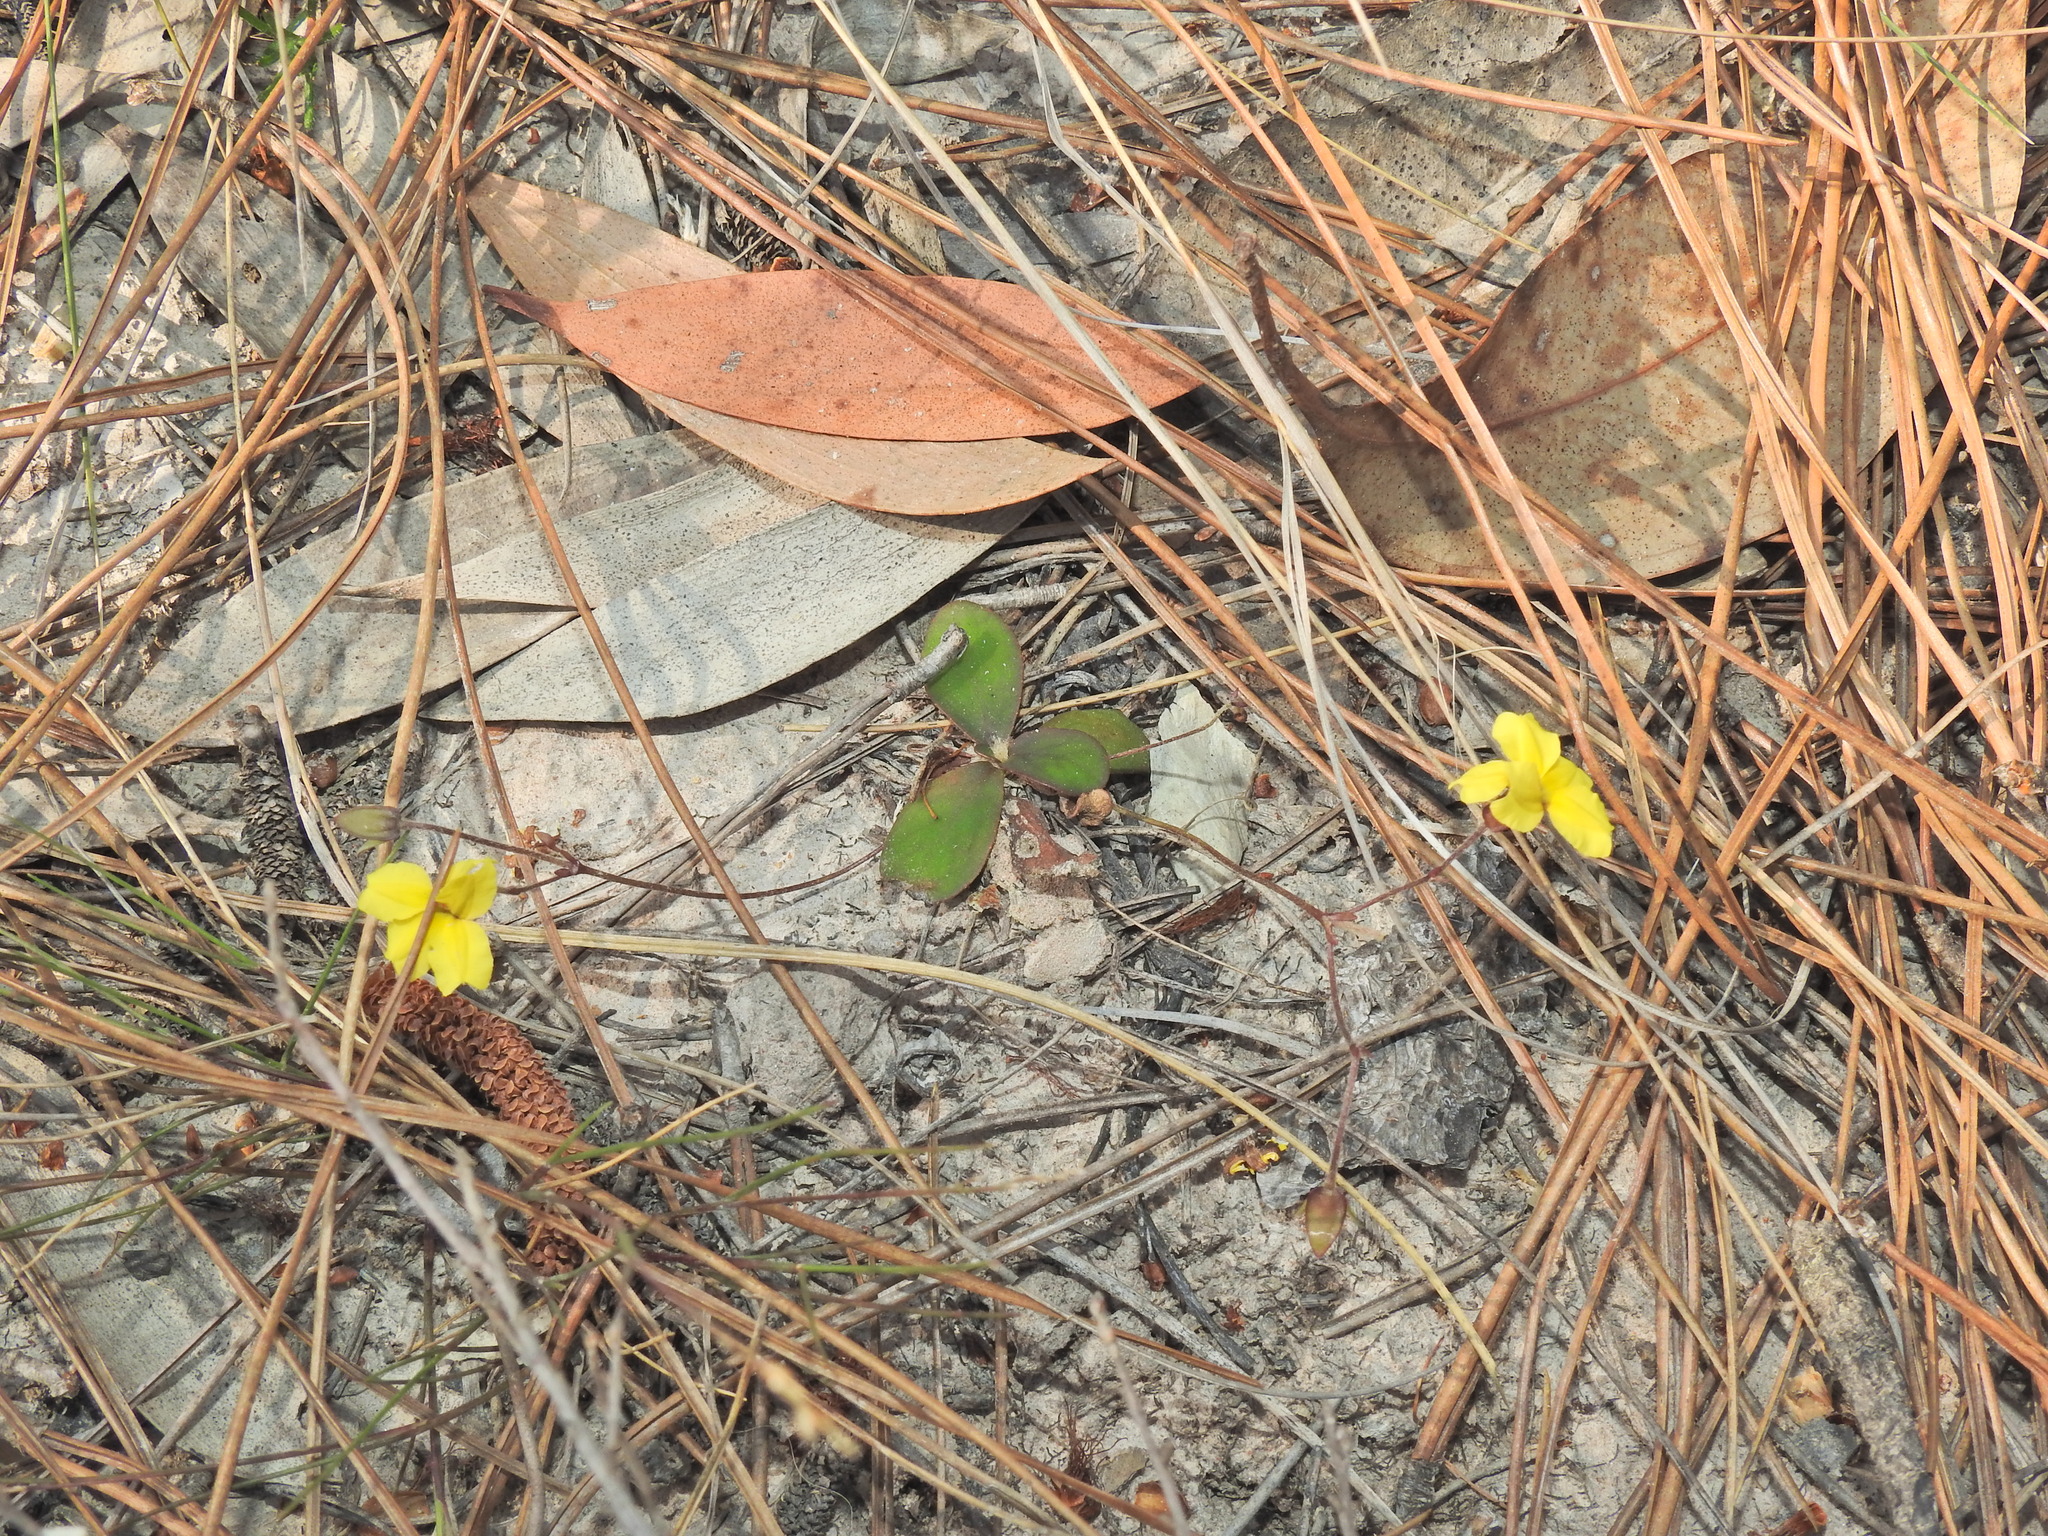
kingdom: Plantae
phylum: Tracheophyta
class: Magnoliopsida
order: Asterales
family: Goodeniaceae
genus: Goodenia
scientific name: Goodenia mystrophylla
